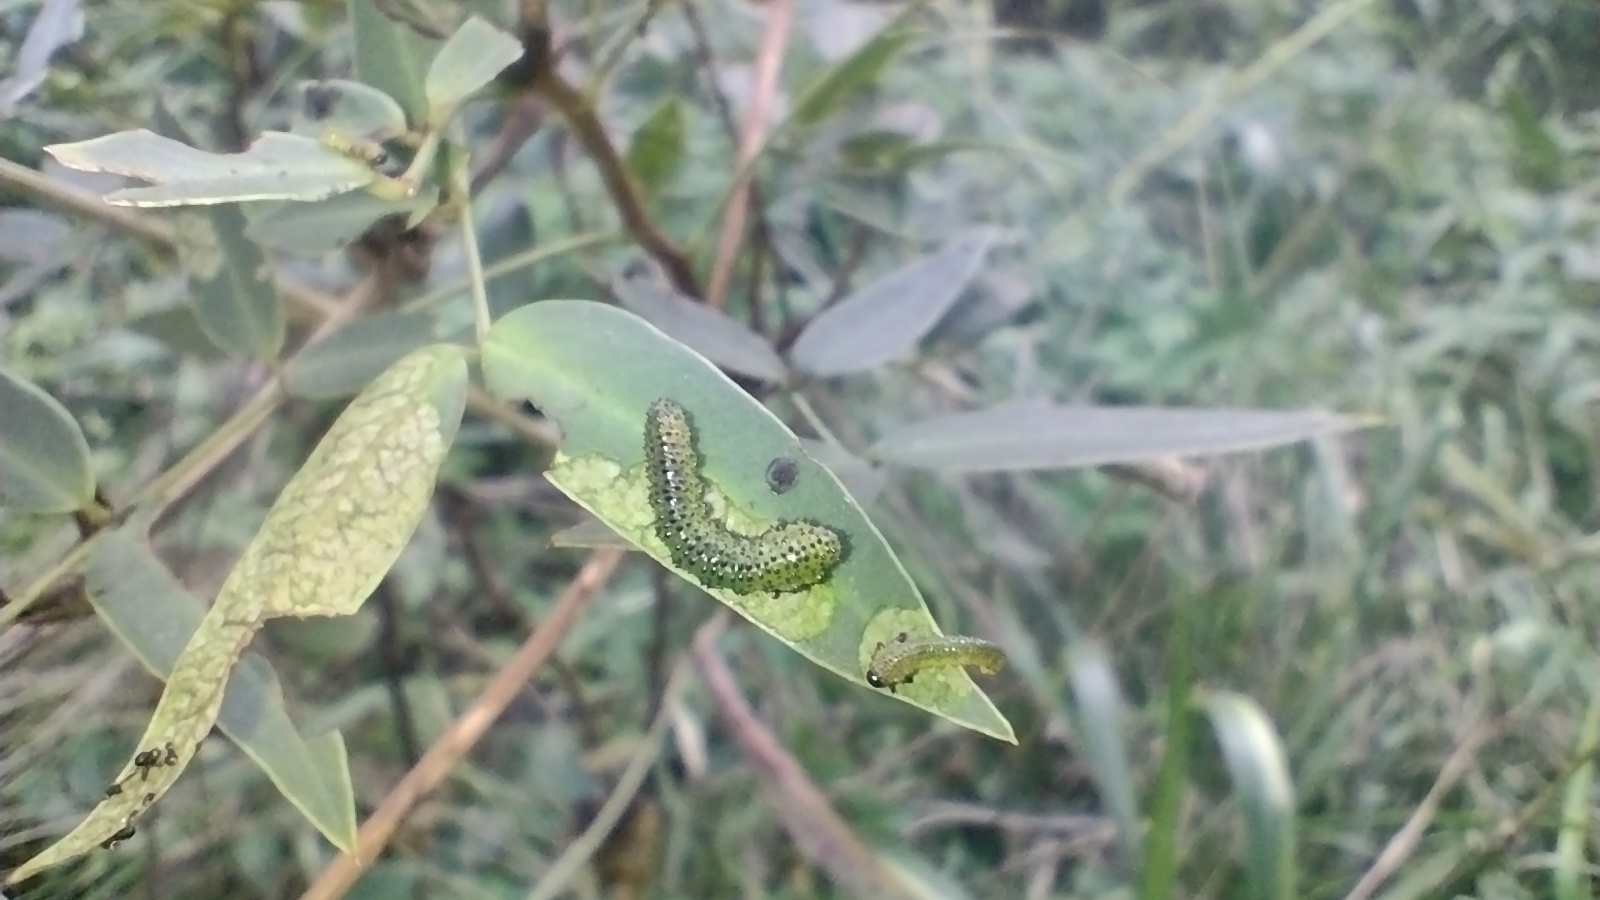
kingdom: Animalia
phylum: Arthropoda
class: Insecta
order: Hymenoptera
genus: Adurgoa
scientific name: Adurgoa
